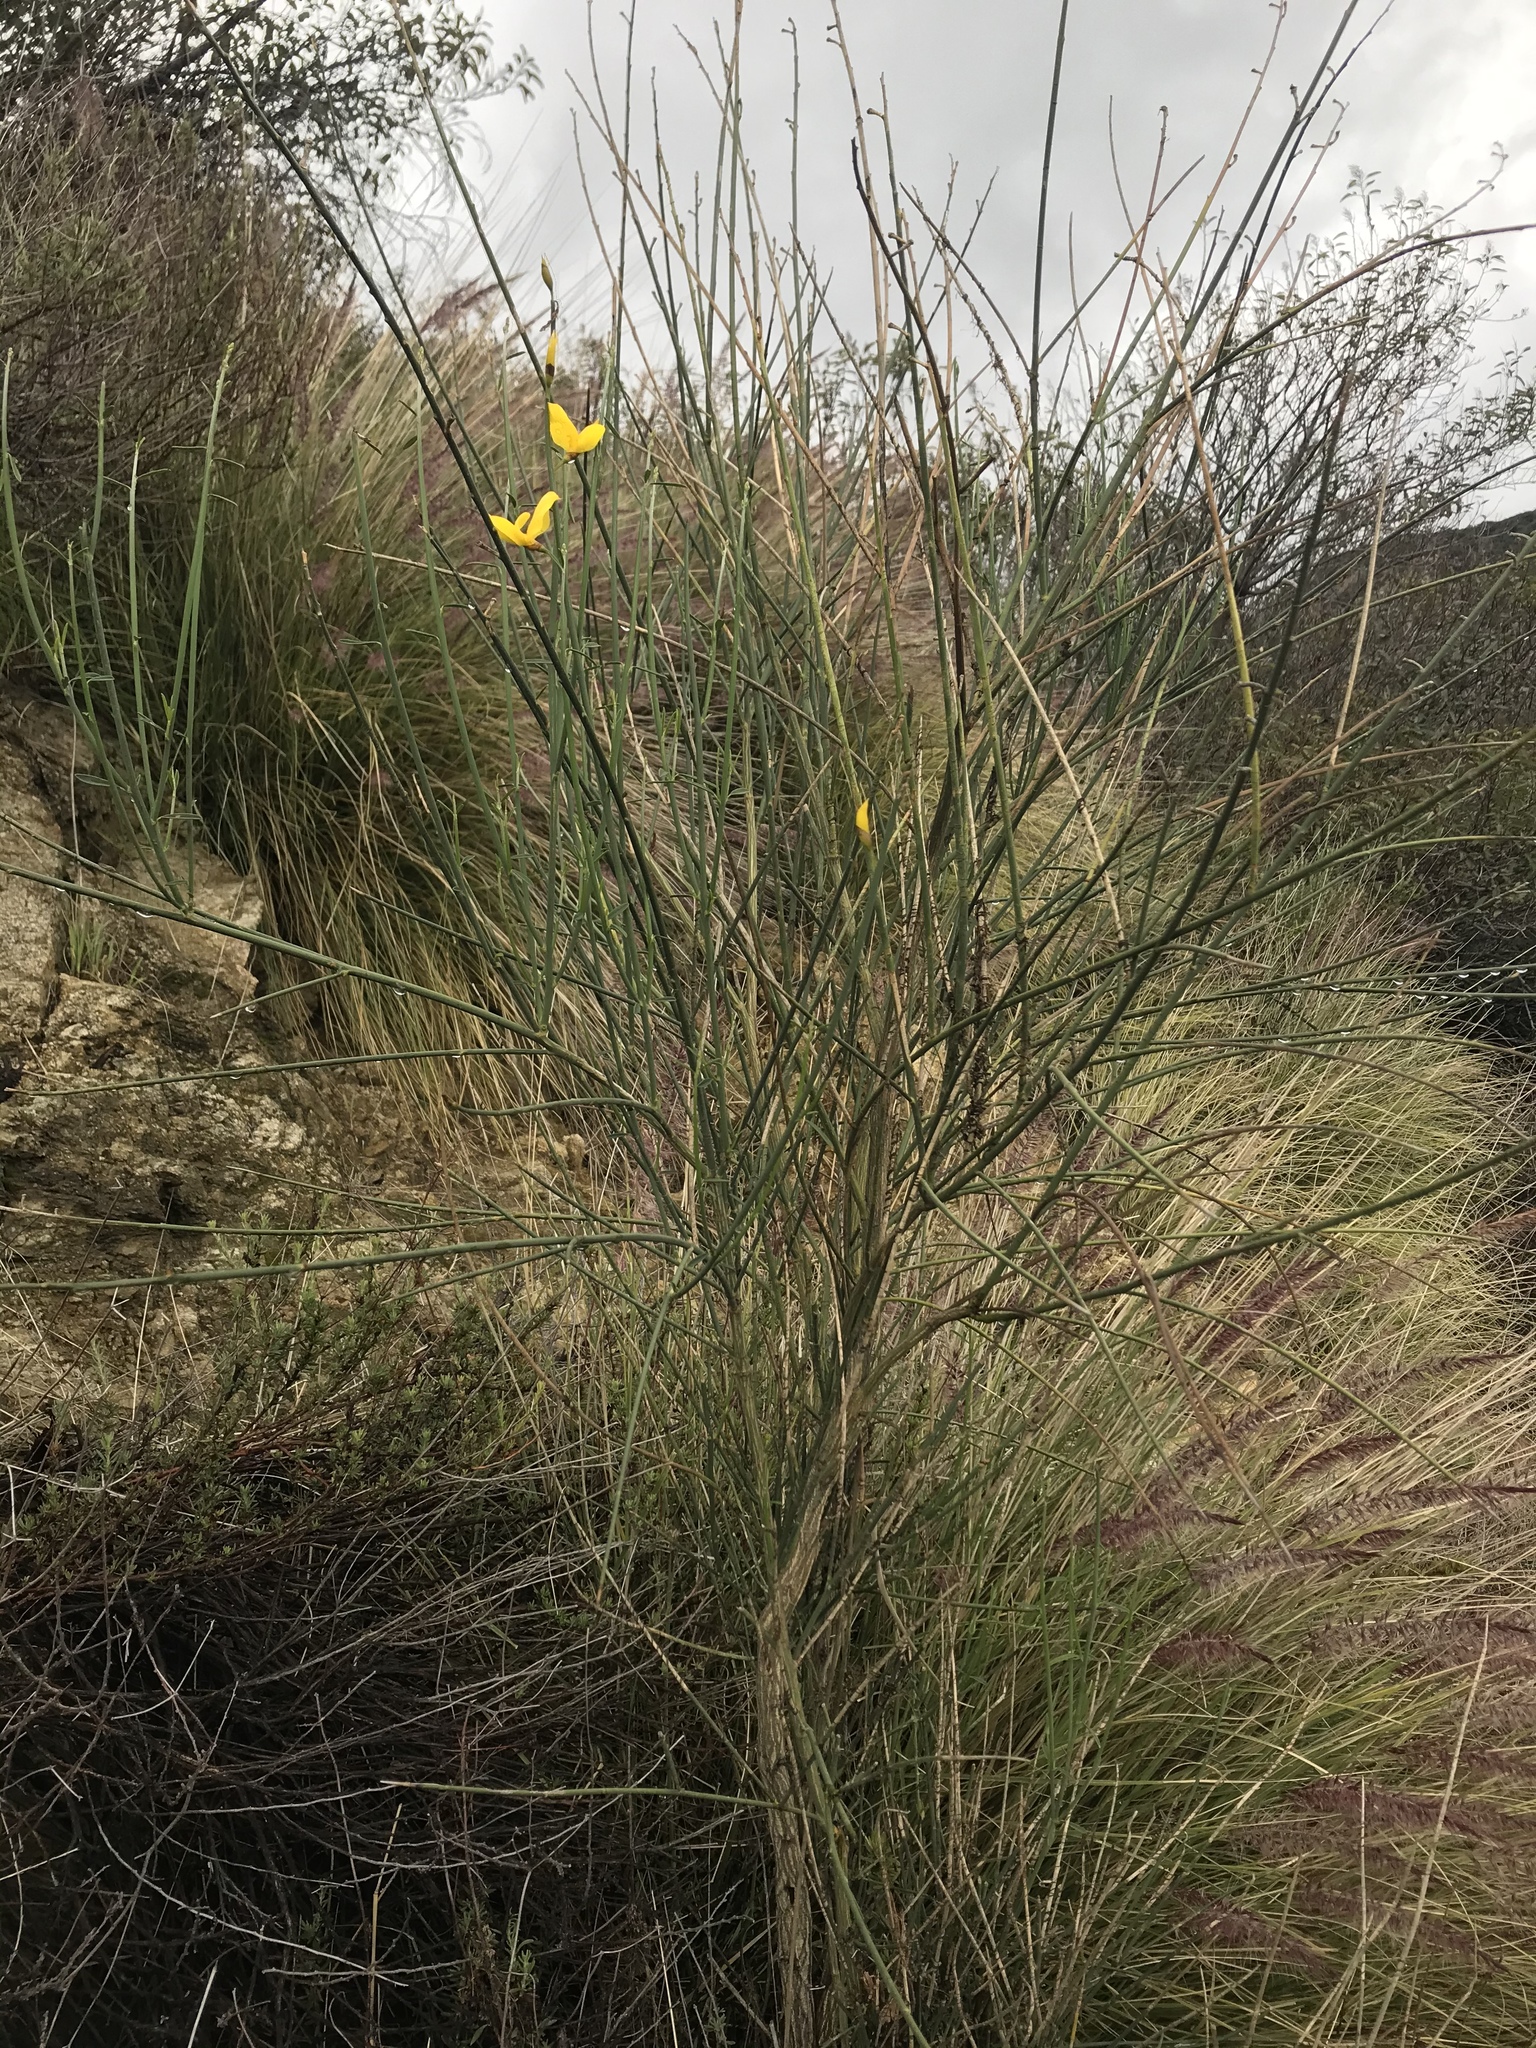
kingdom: Plantae
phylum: Tracheophyta
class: Magnoliopsida
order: Fabales
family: Fabaceae
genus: Spartium
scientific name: Spartium junceum
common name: Spanish broom
